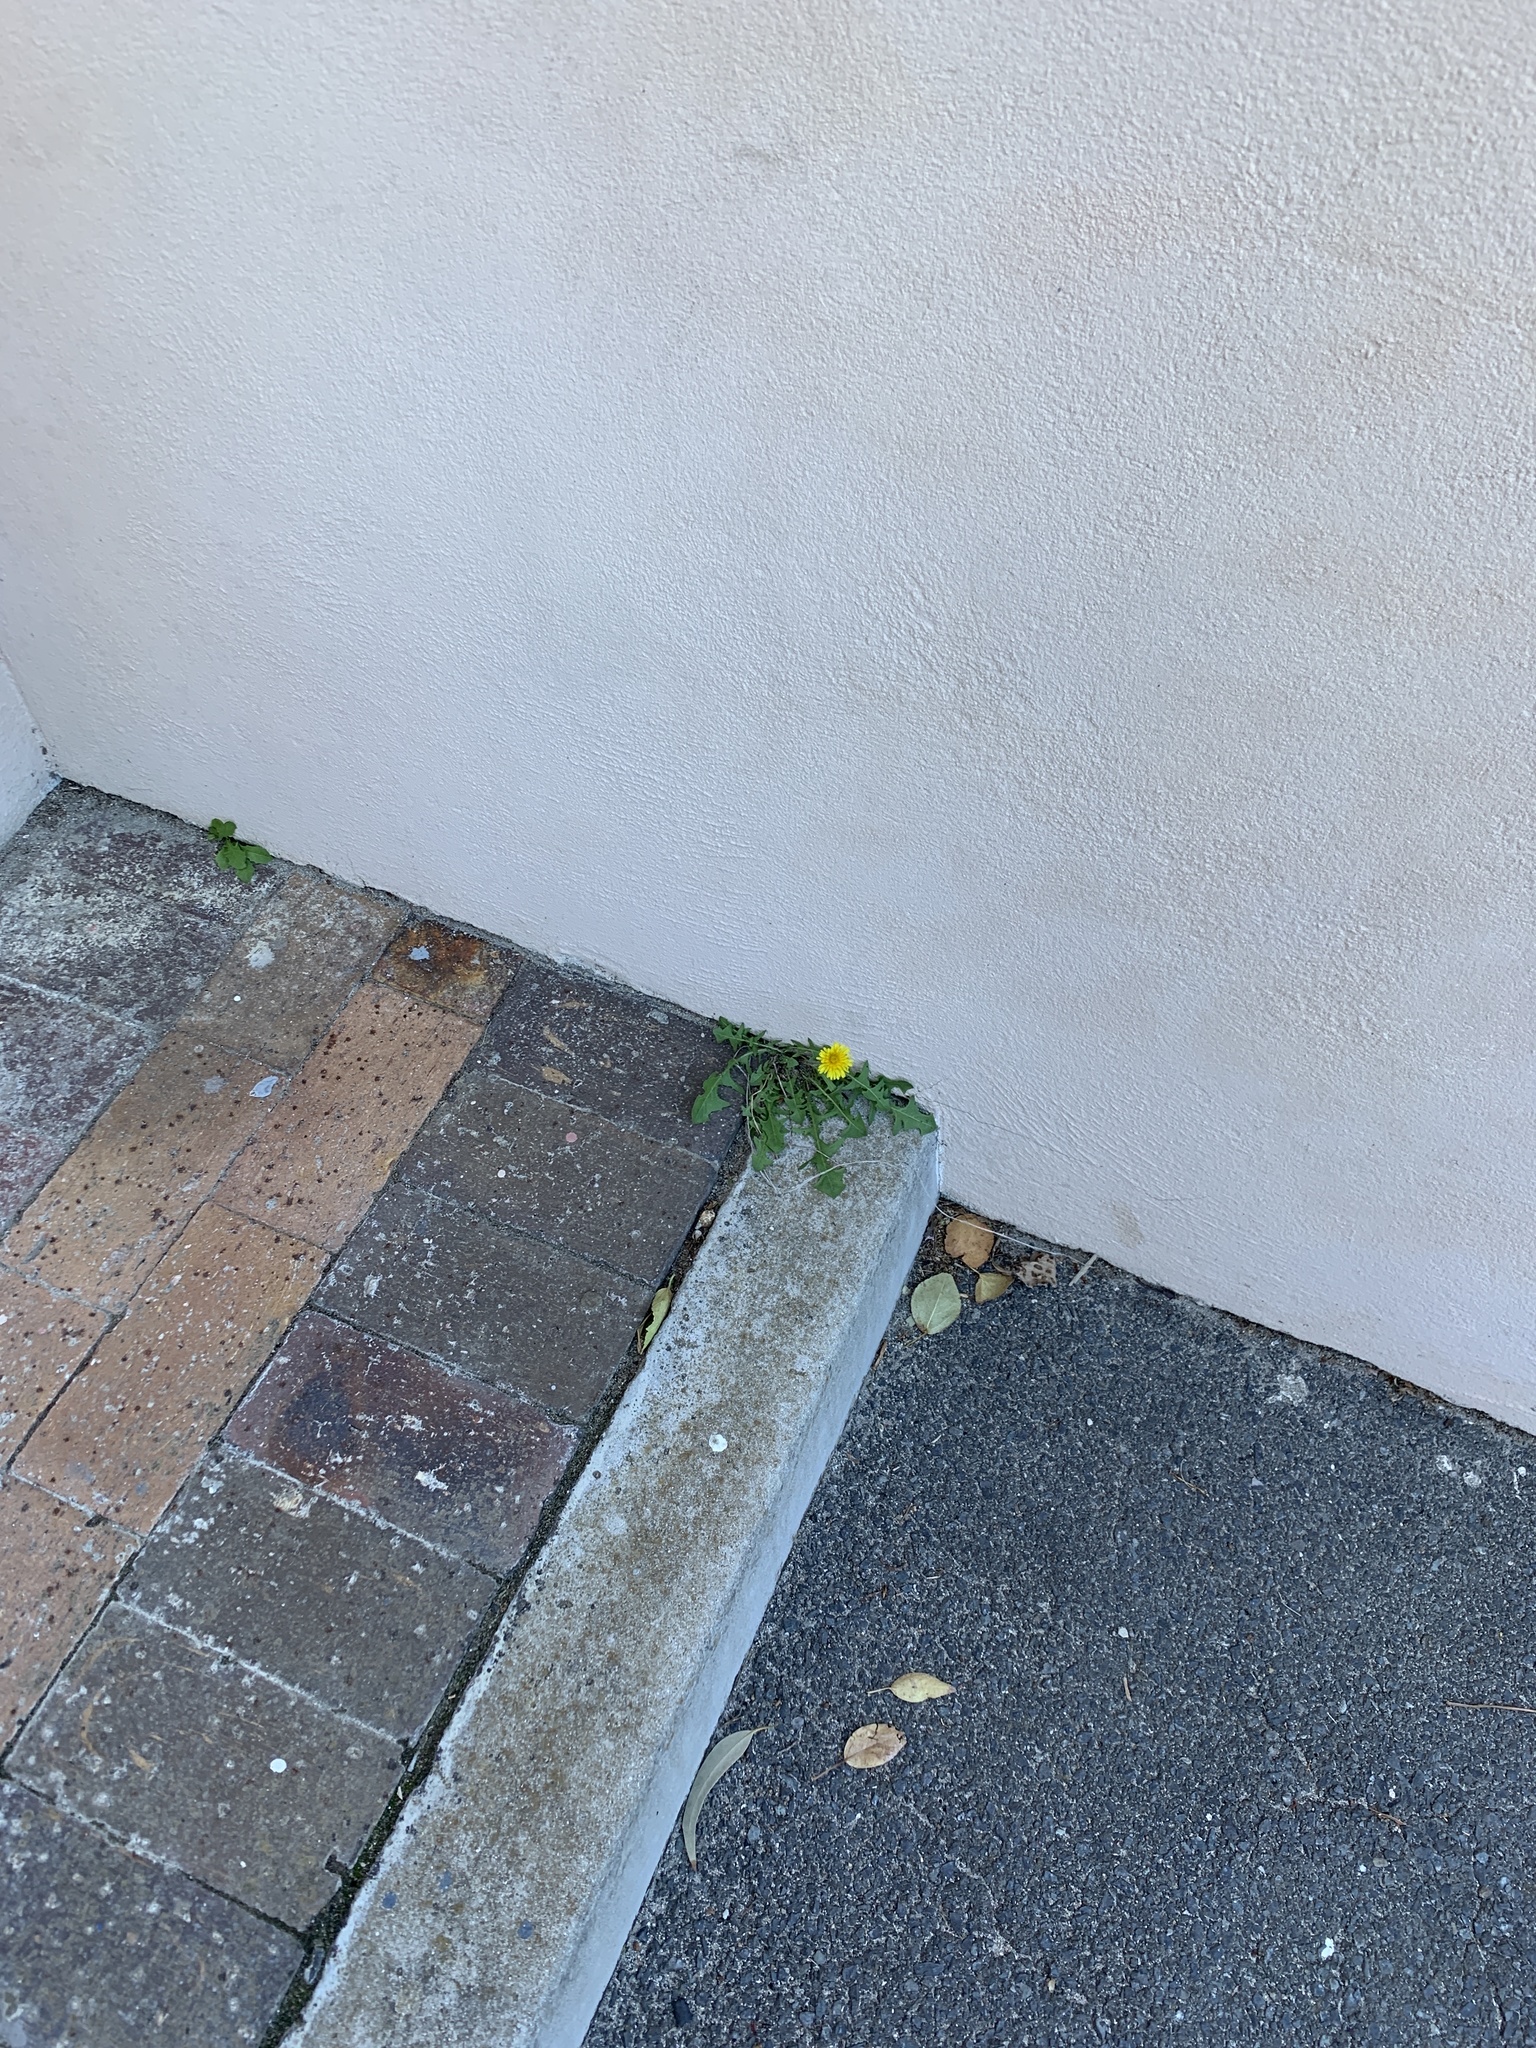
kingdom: Plantae
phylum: Tracheophyta
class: Magnoliopsida
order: Asterales
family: Asteraceae
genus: Taraxacum
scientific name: Taraxacum officinale
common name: Common dandelion
